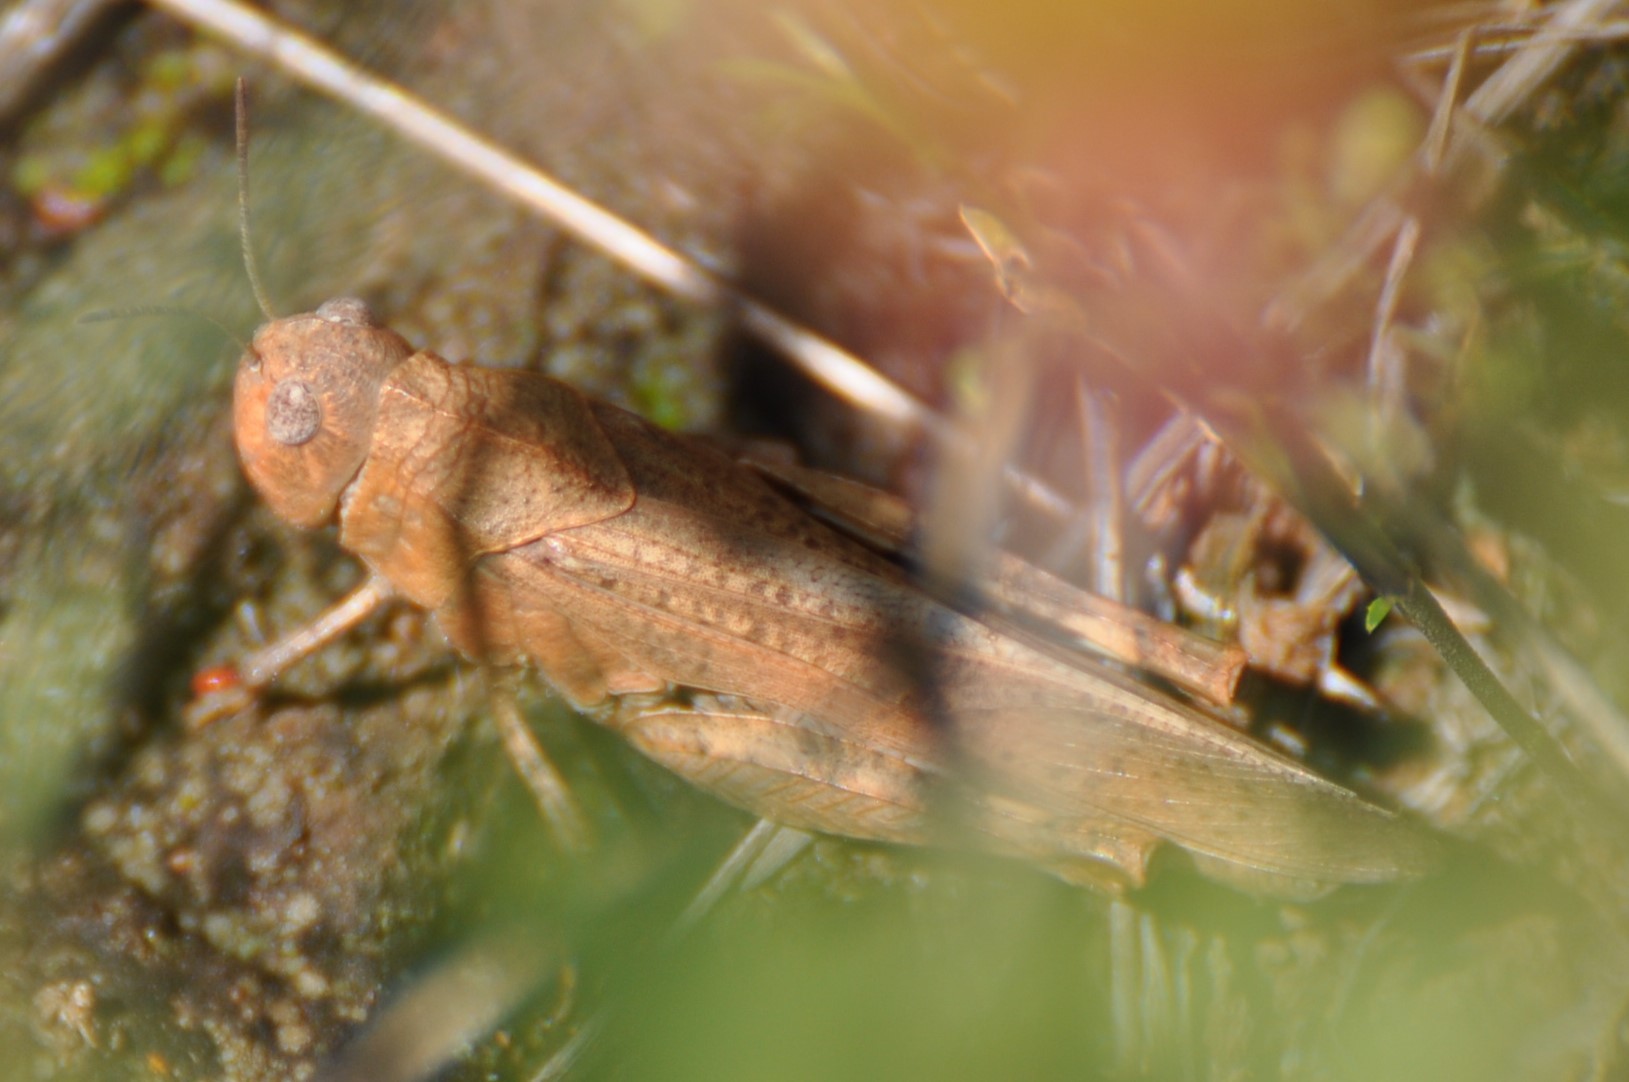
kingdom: Animalia
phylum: Arthropoda
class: Insecta
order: Orthoptera
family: Acrididae
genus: Arphia
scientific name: Arphia conspersa
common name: Speckle-winged rangeland grasshopper
